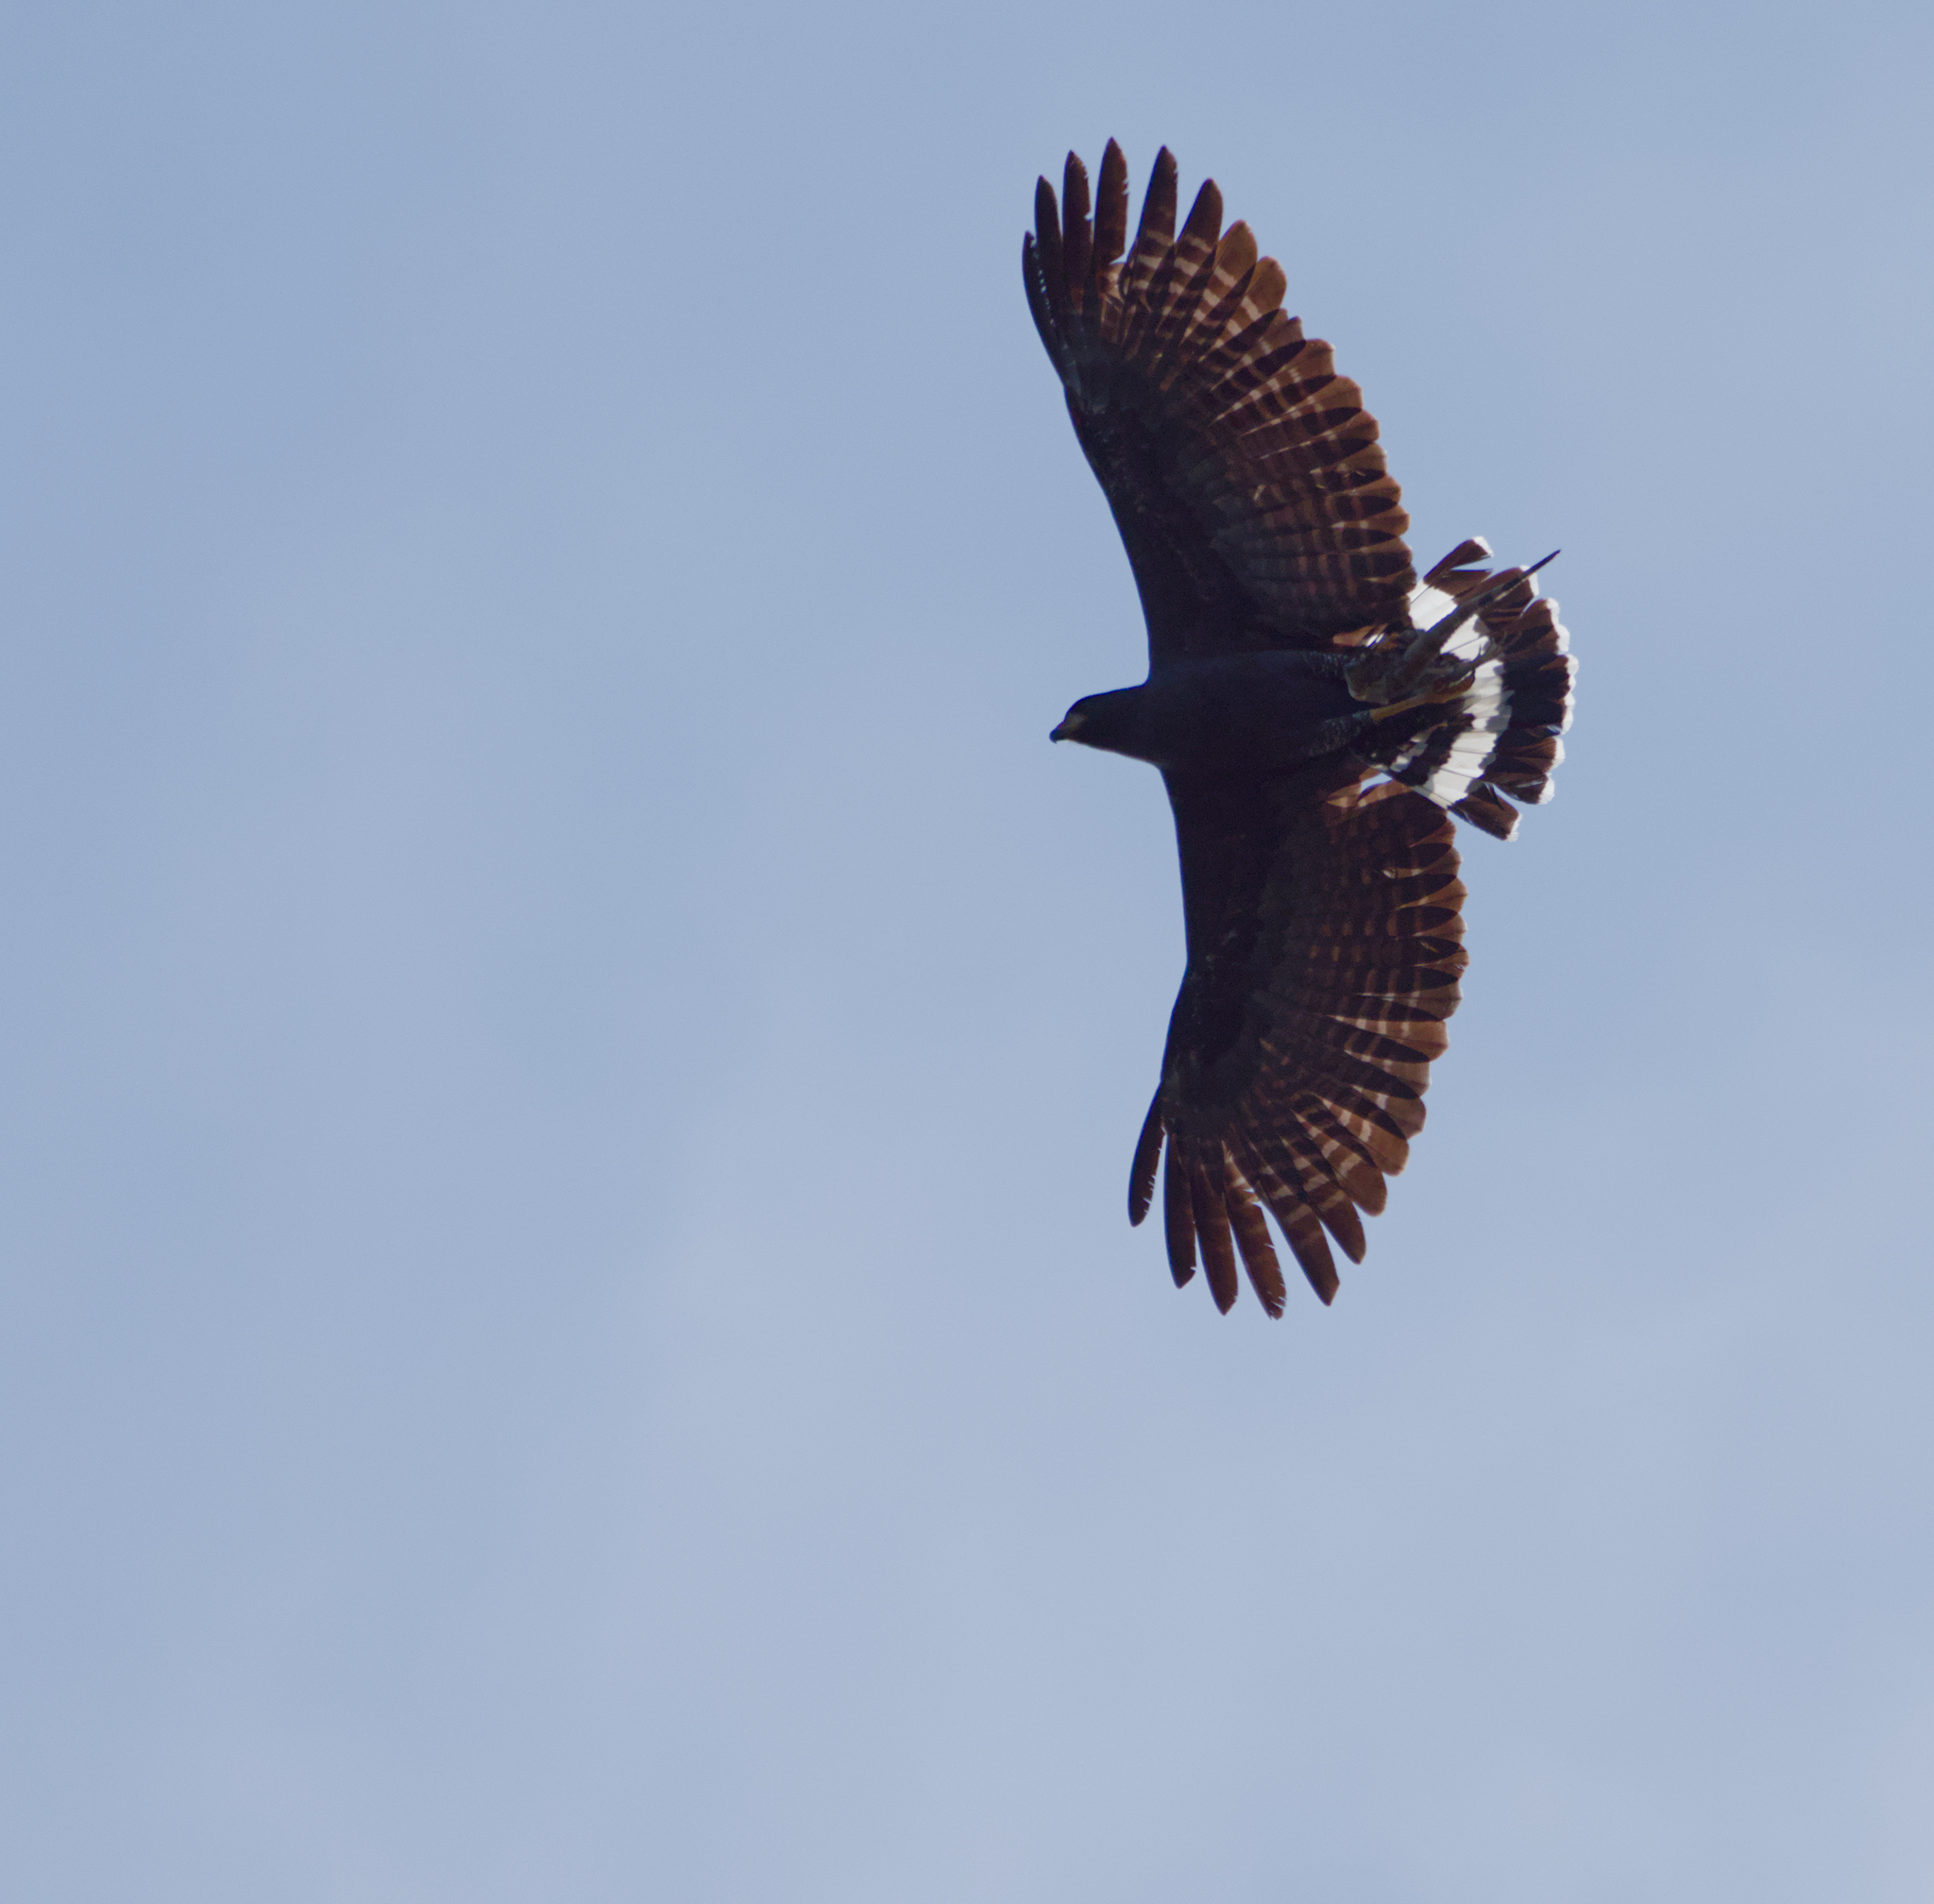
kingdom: Animalia
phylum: Chordata
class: Aves
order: Accipitriformes
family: Accipitridae
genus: Buteogallus
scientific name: Buteogallus urubitinga
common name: Great black hawk
